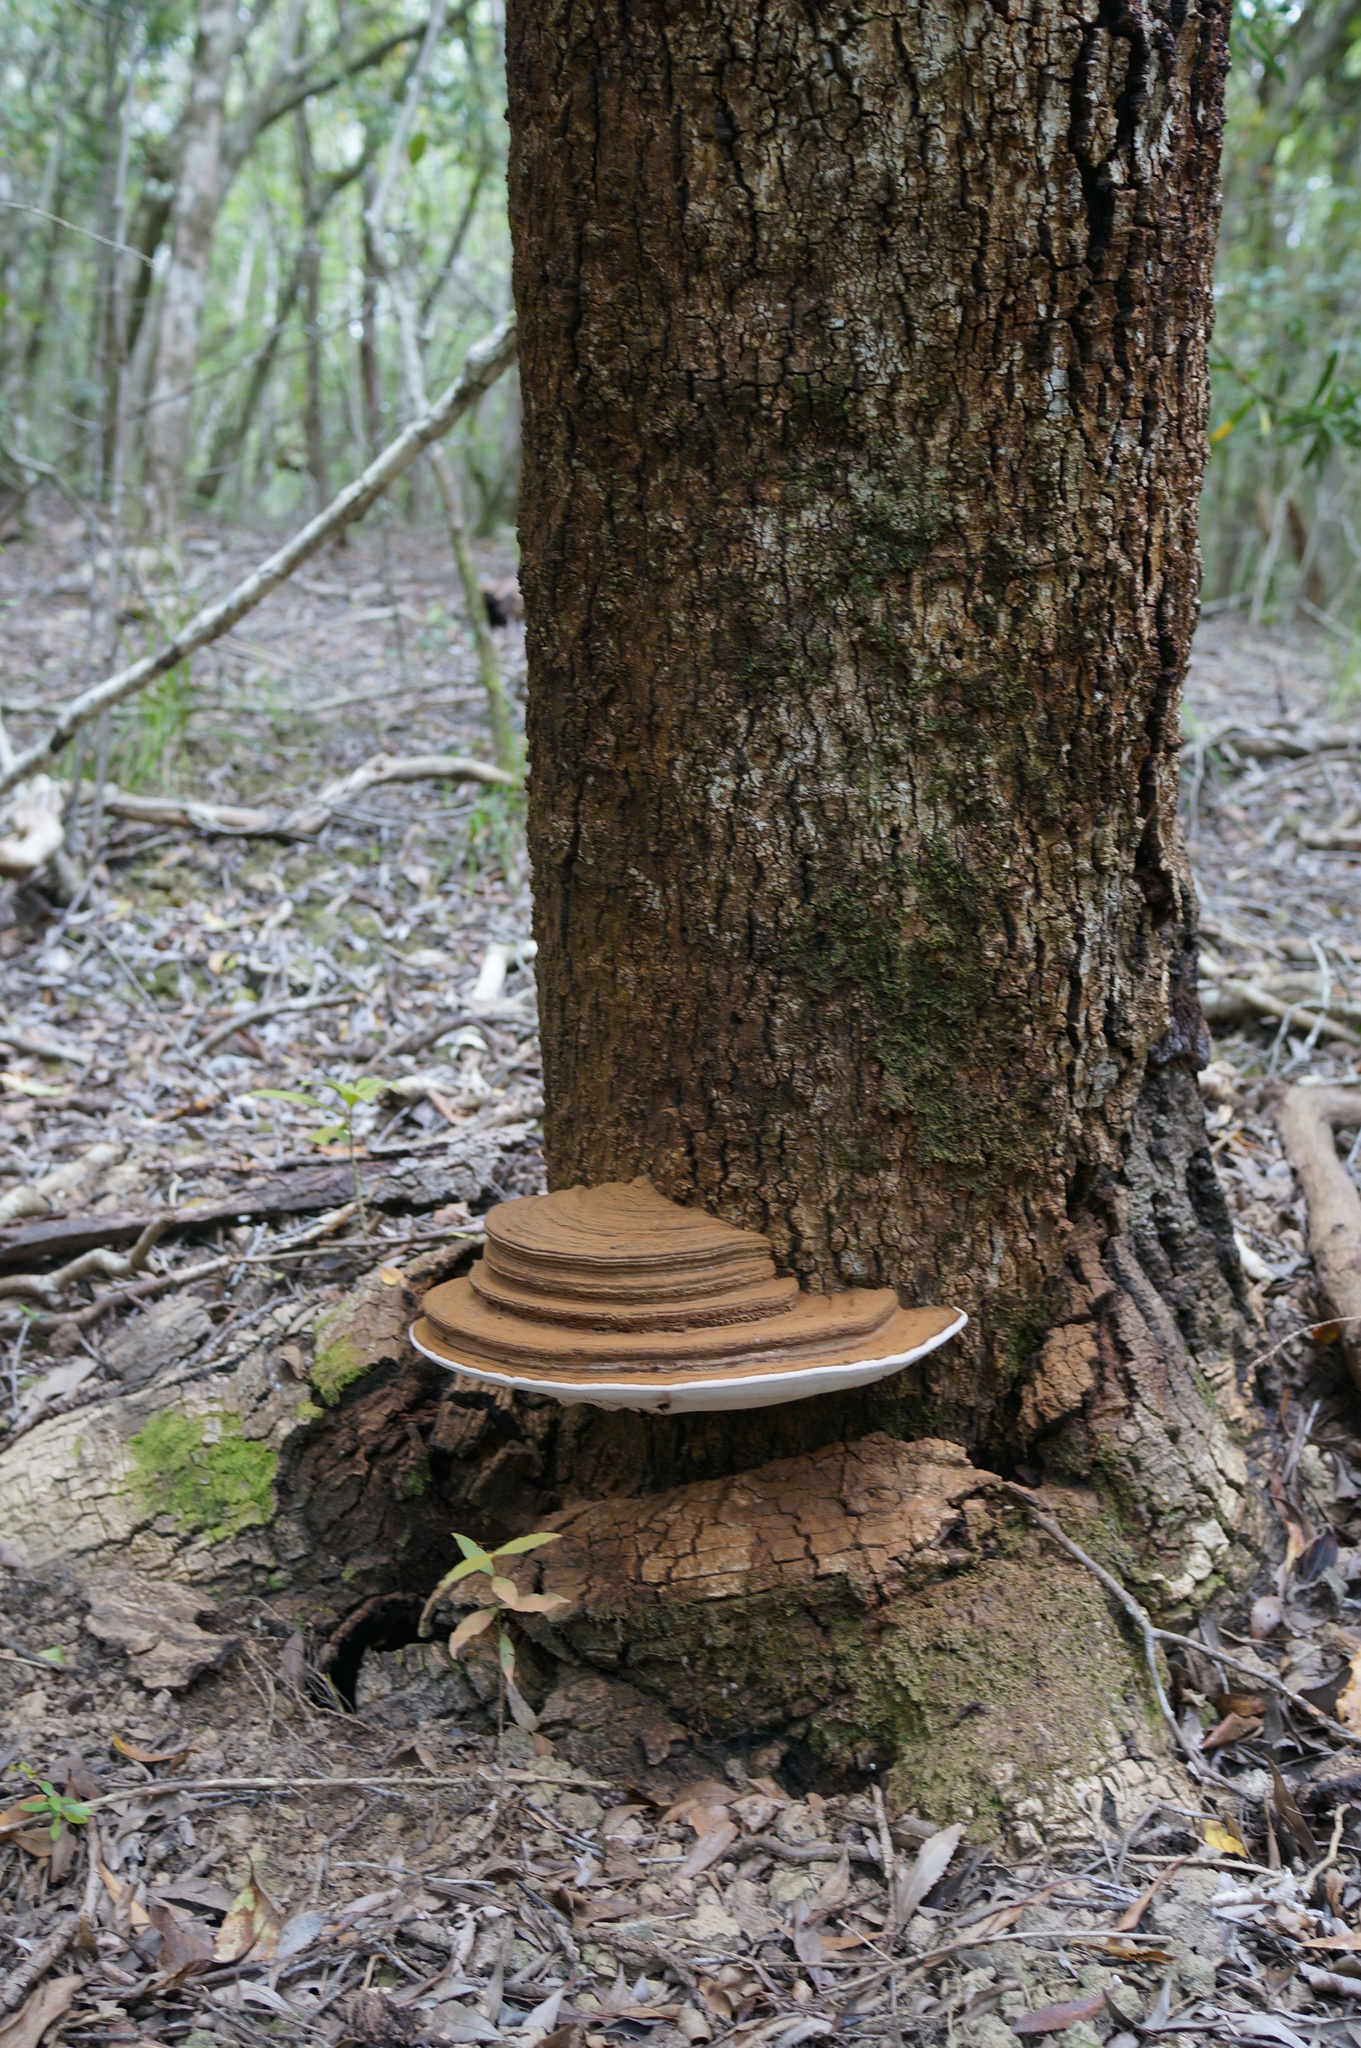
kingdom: Fungi
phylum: Basidiomycota
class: Agaricomycetes
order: Polyporales
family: Polyporaceae
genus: Ganoderma
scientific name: Ganoderma applanatum
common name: Artist's bracket
